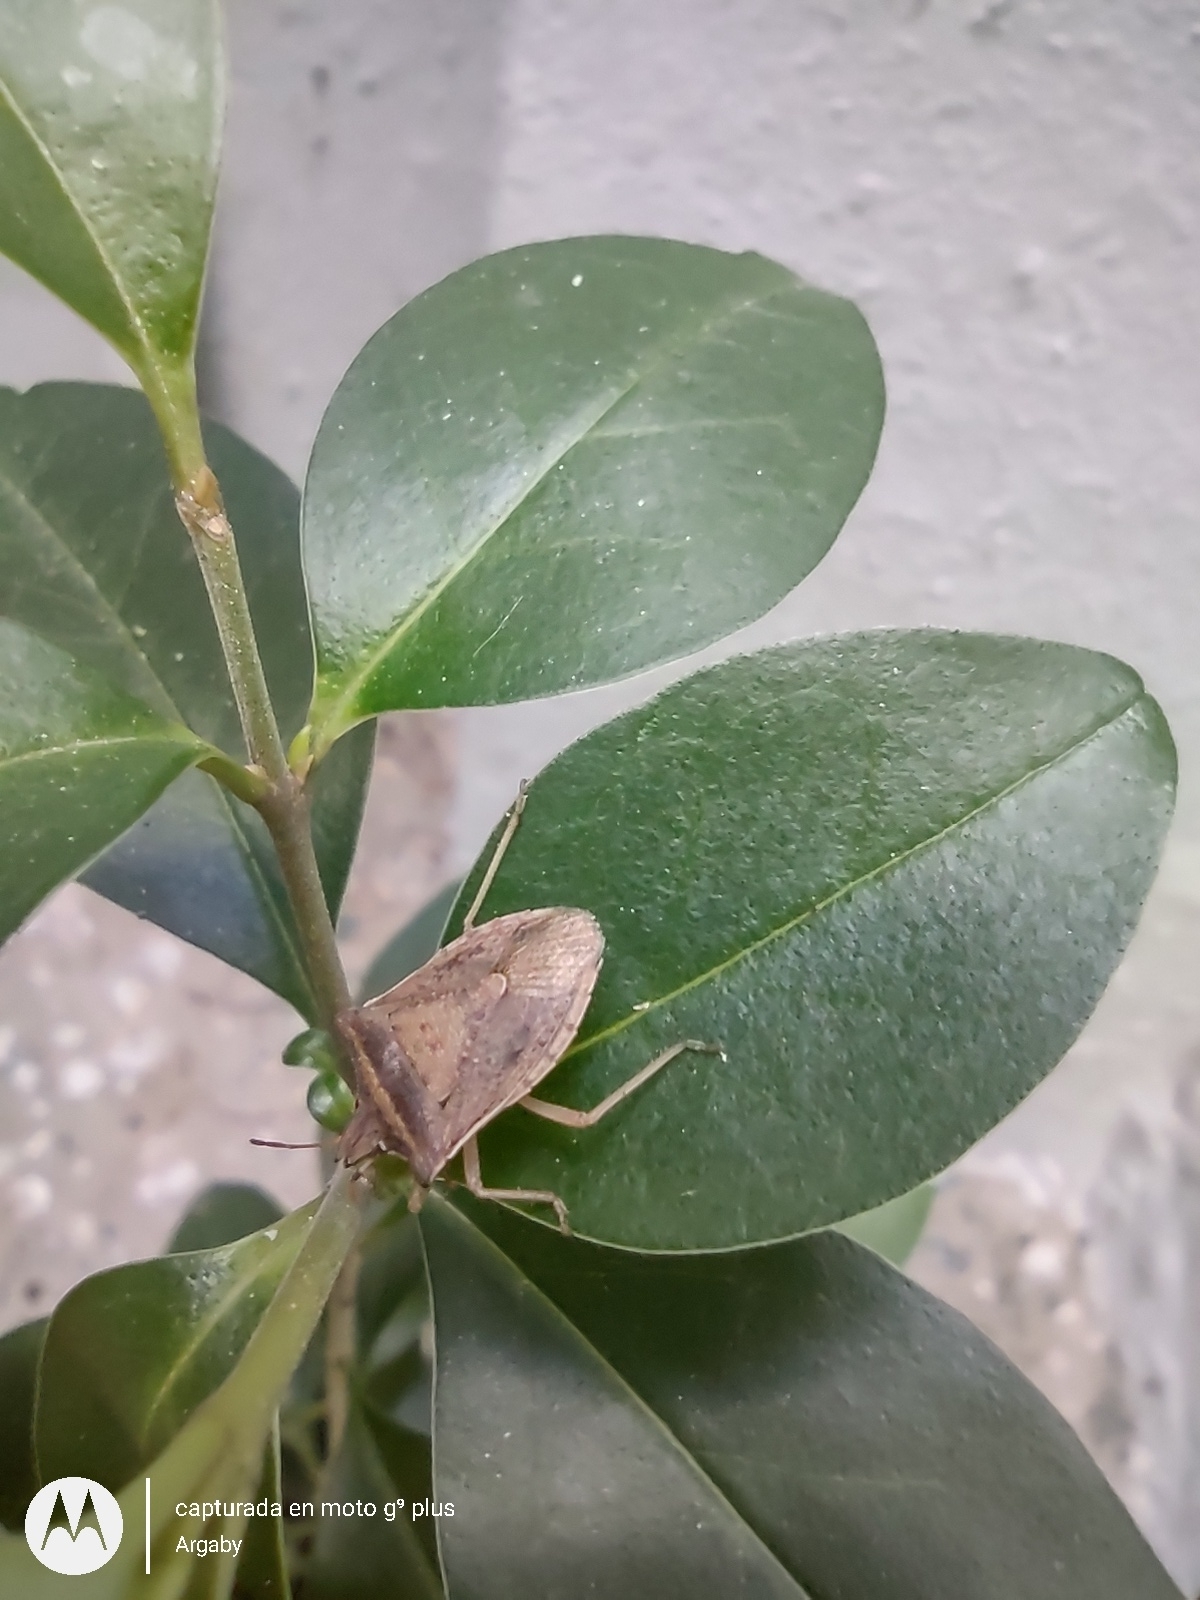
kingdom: Animalia
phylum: Arthropoda
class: Insecta
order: Hemiptera
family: Pentatomidae
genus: Diceraeus
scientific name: Diceraeus furcatus
